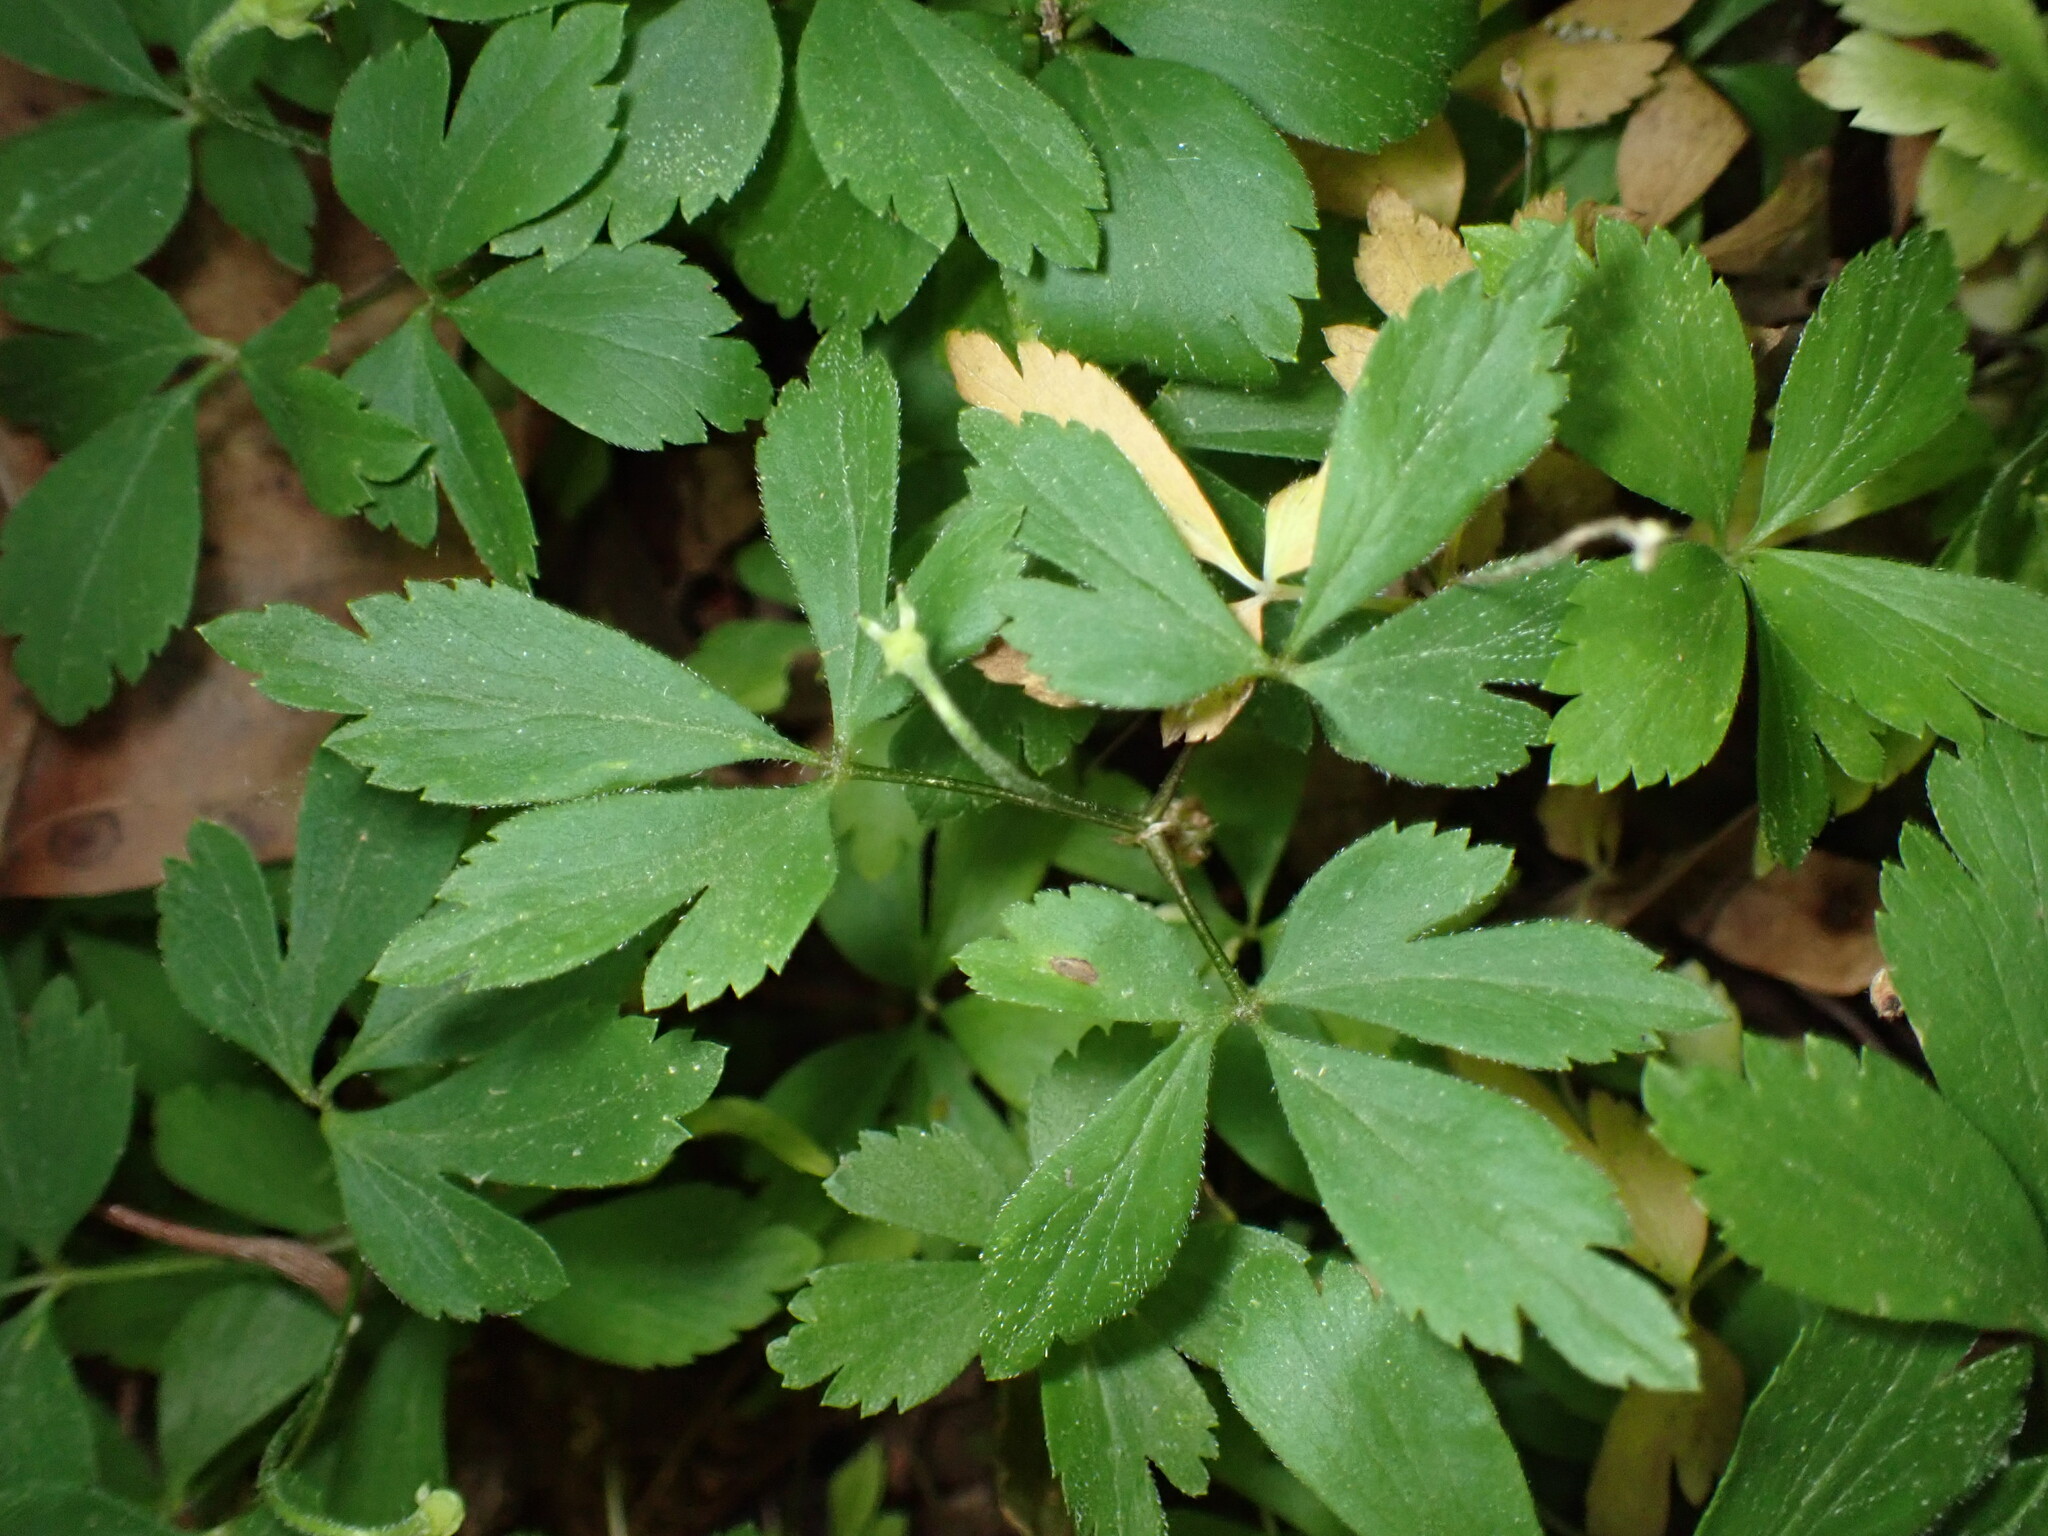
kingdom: Plantae
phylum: Tracheophyta
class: Magnoliopsida
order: Ranunculales
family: Ranunculaceae
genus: Anemone
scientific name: Anemone quinquefolia
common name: Wood anemone
